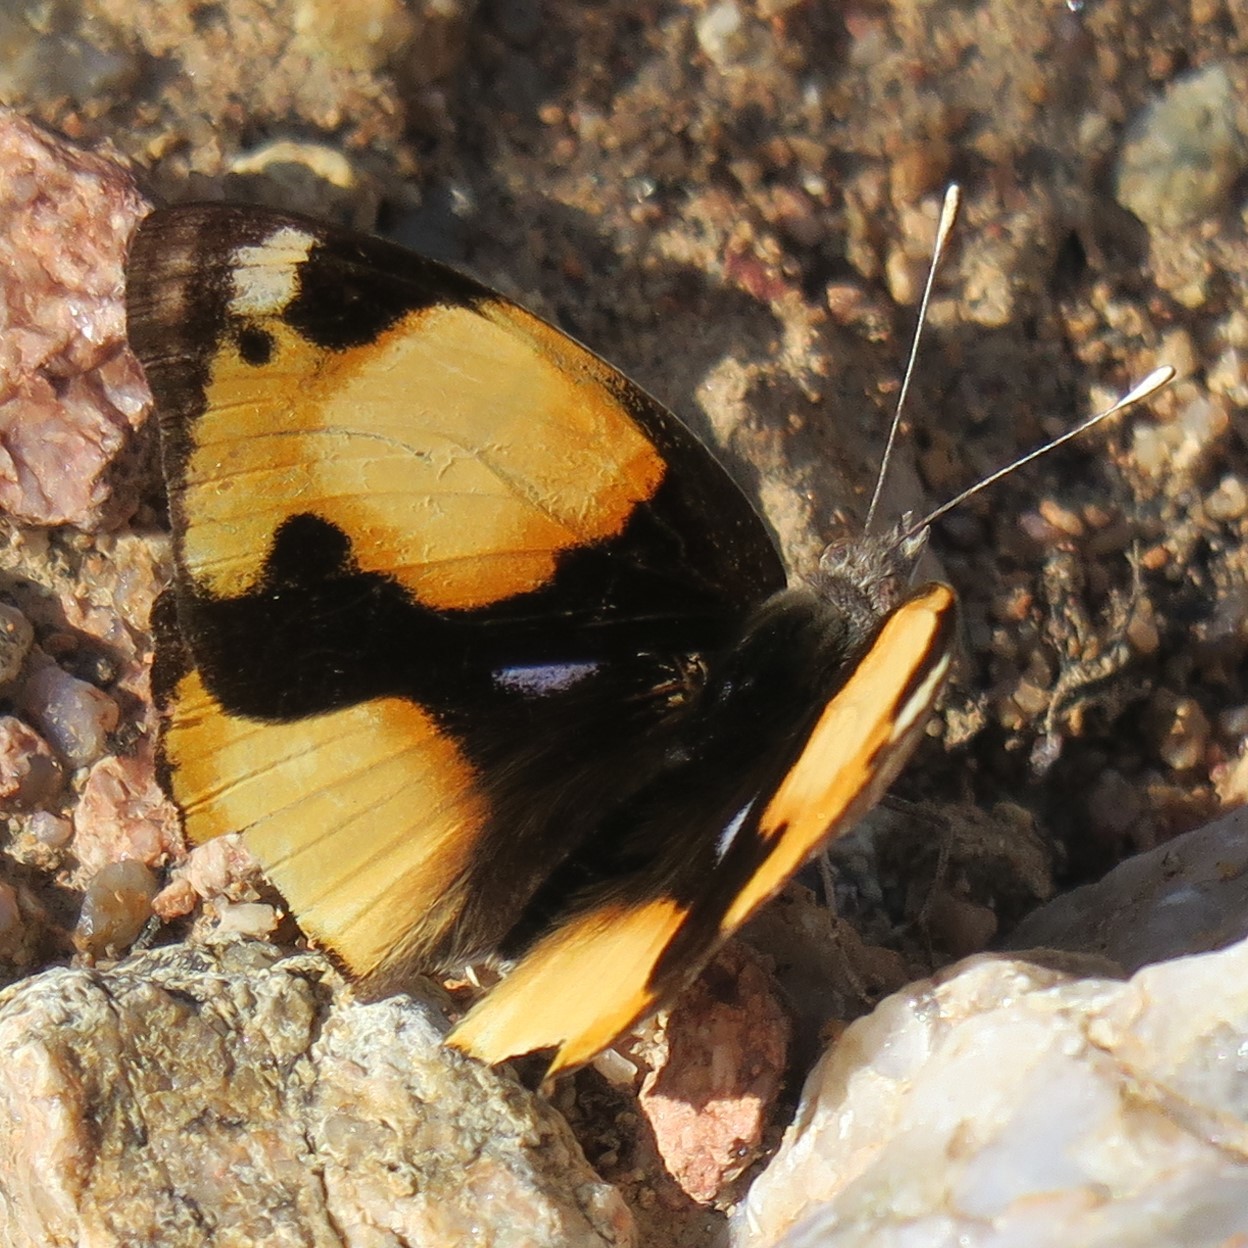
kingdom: Animalia
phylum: Arthropoda
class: Insecta
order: Lepidoptera
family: Nymphalidae
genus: Junonia
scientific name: Junonia hierta
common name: Yellow pansy
